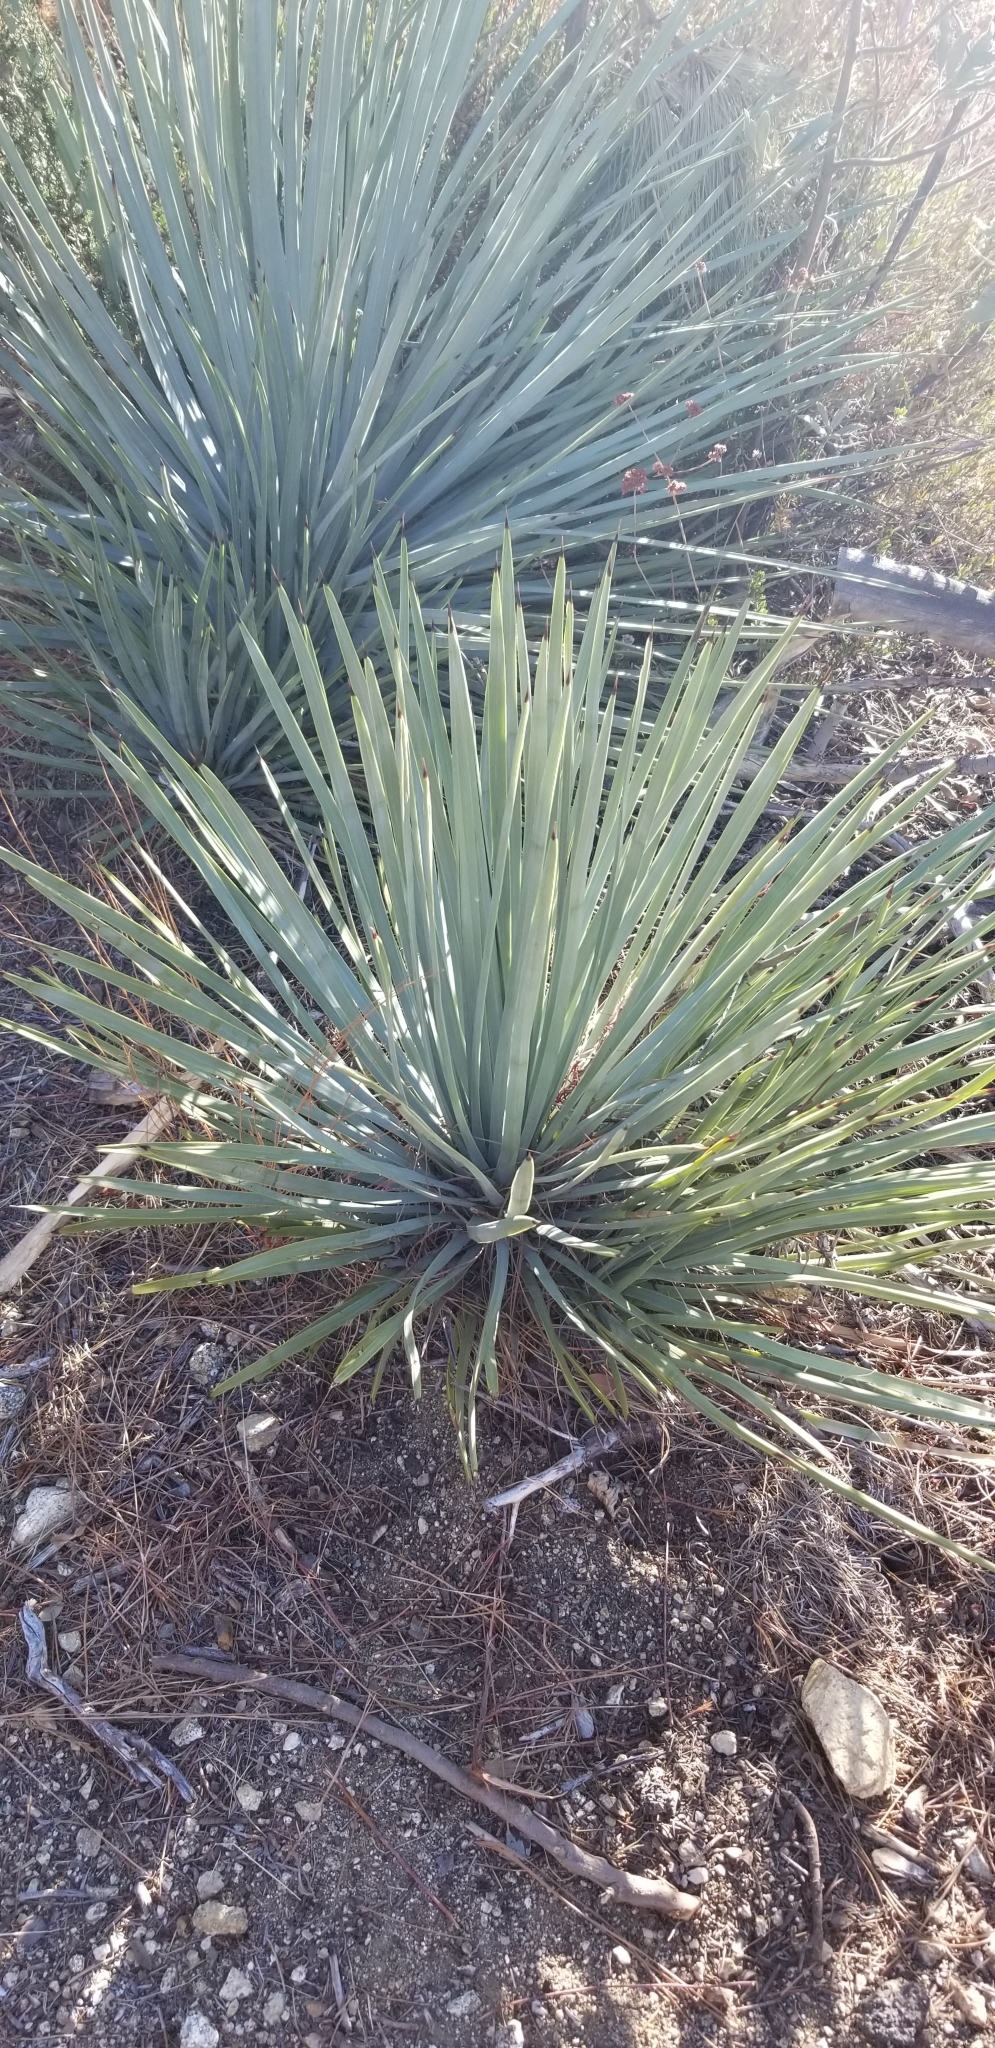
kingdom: Plantae
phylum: Tracheophyta
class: Liliopsida
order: Asparagales
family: Asparagaceae
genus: Hesperoyucca
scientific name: Hesperoyucca whipplei
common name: Our lord's-candle
